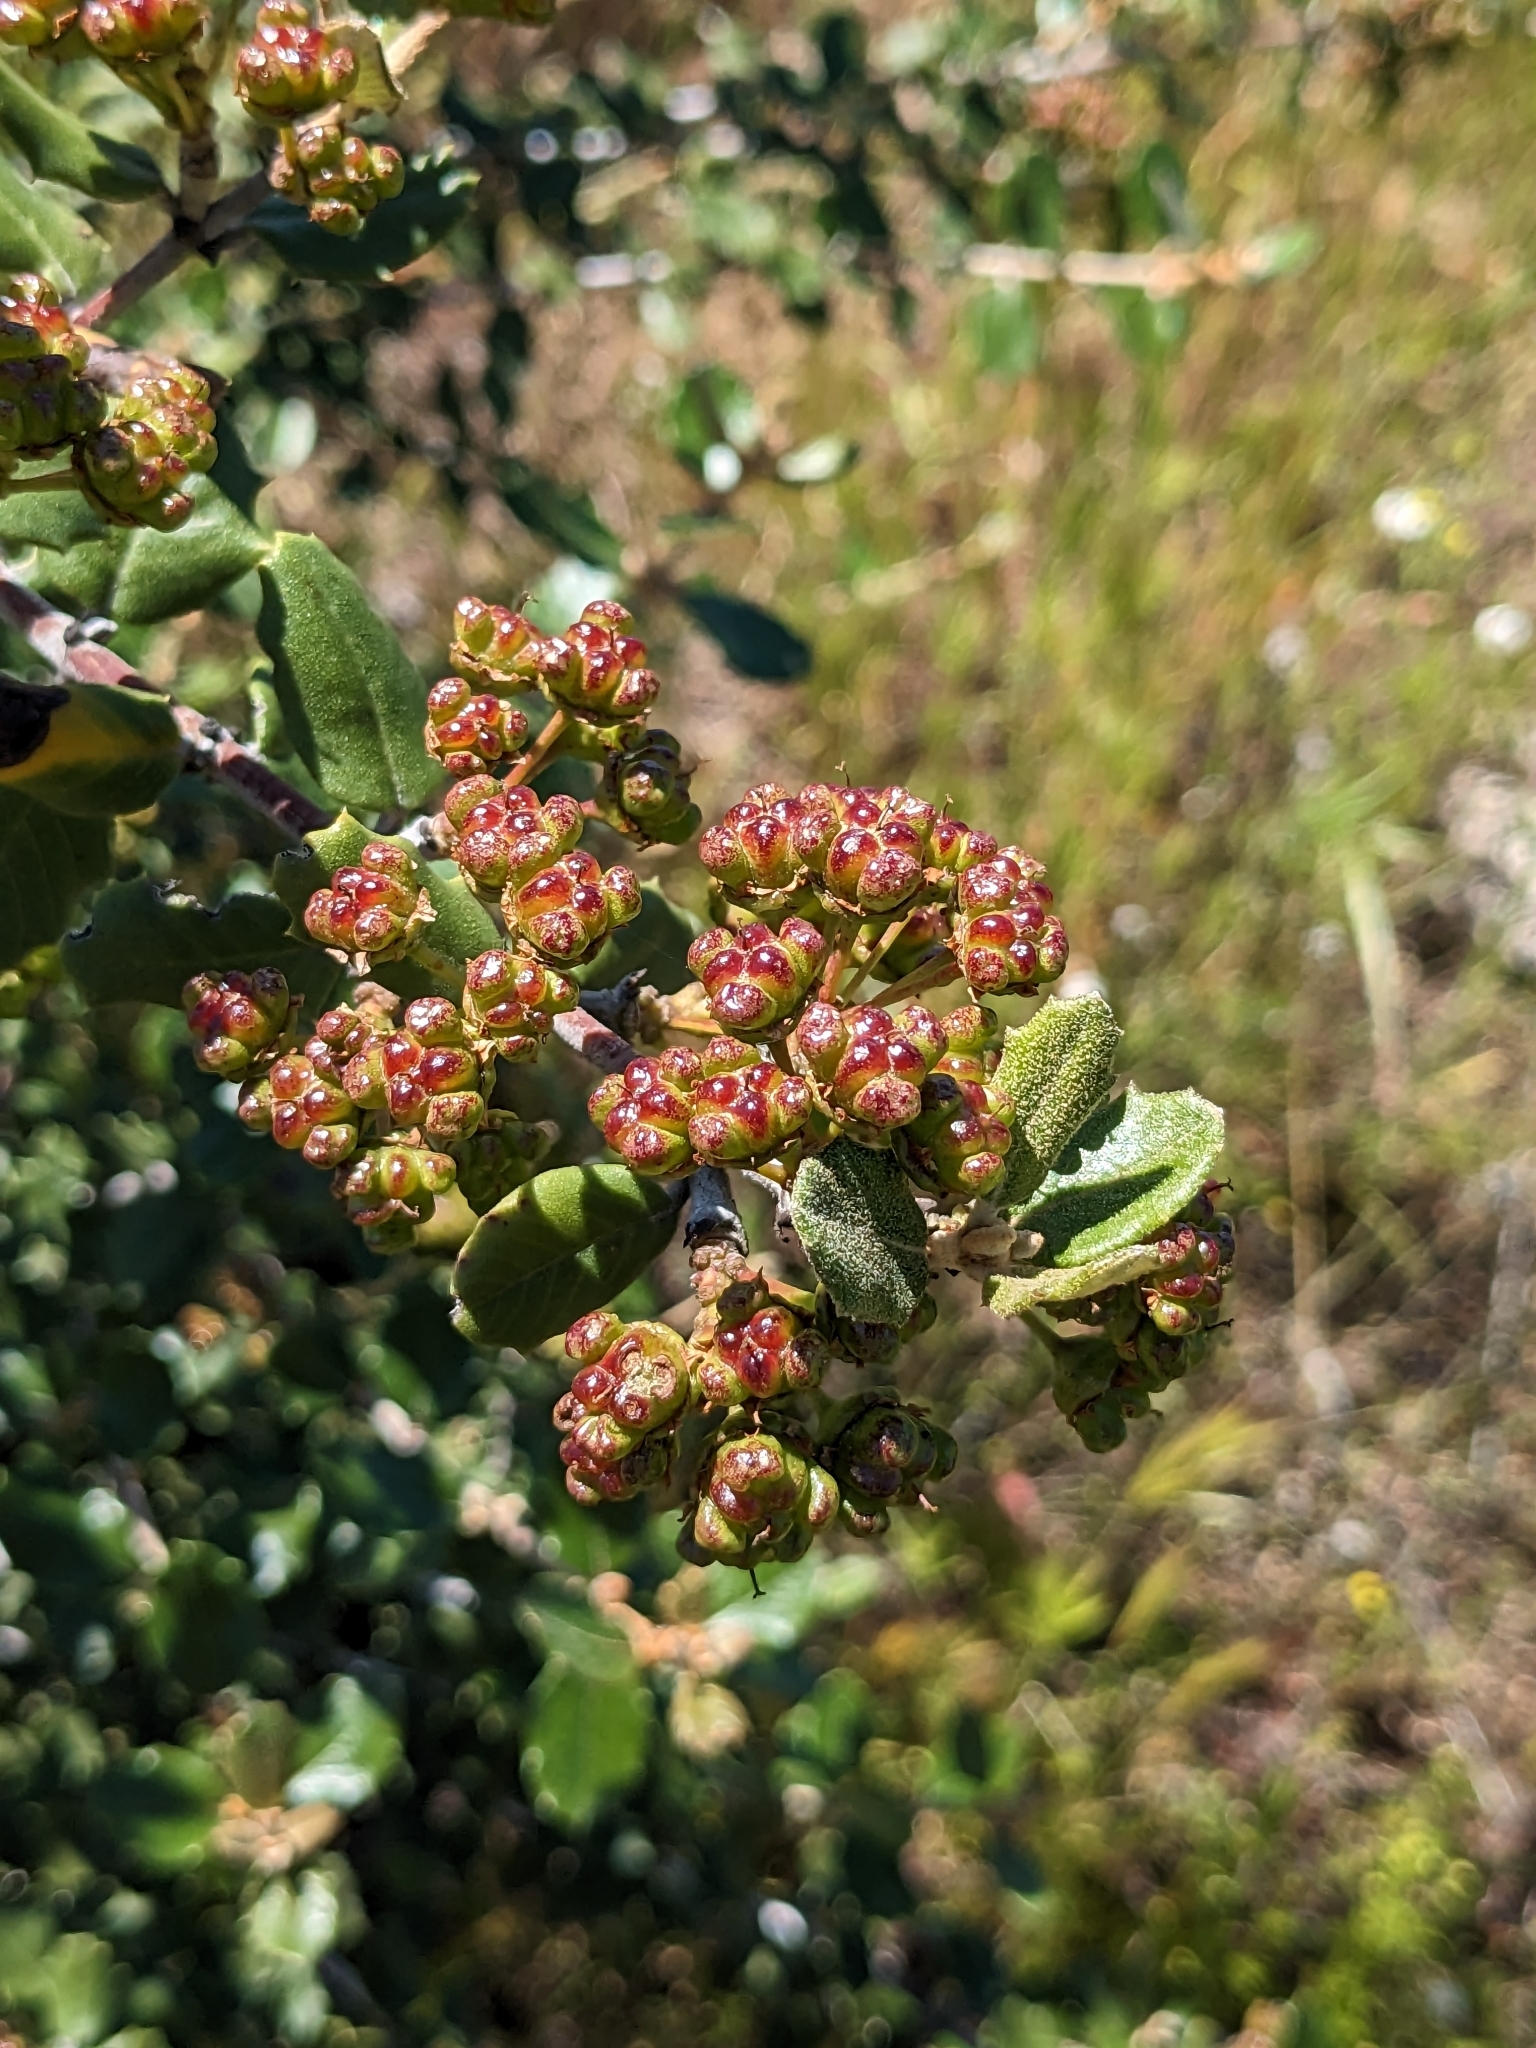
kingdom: Plantae
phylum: Tracheophyta
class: Magnoliopsida
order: Rosales
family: Rhamnaceae
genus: Ceanothus
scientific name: Ceanothus crassifolius
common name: Hoaryleaf ceanothus
